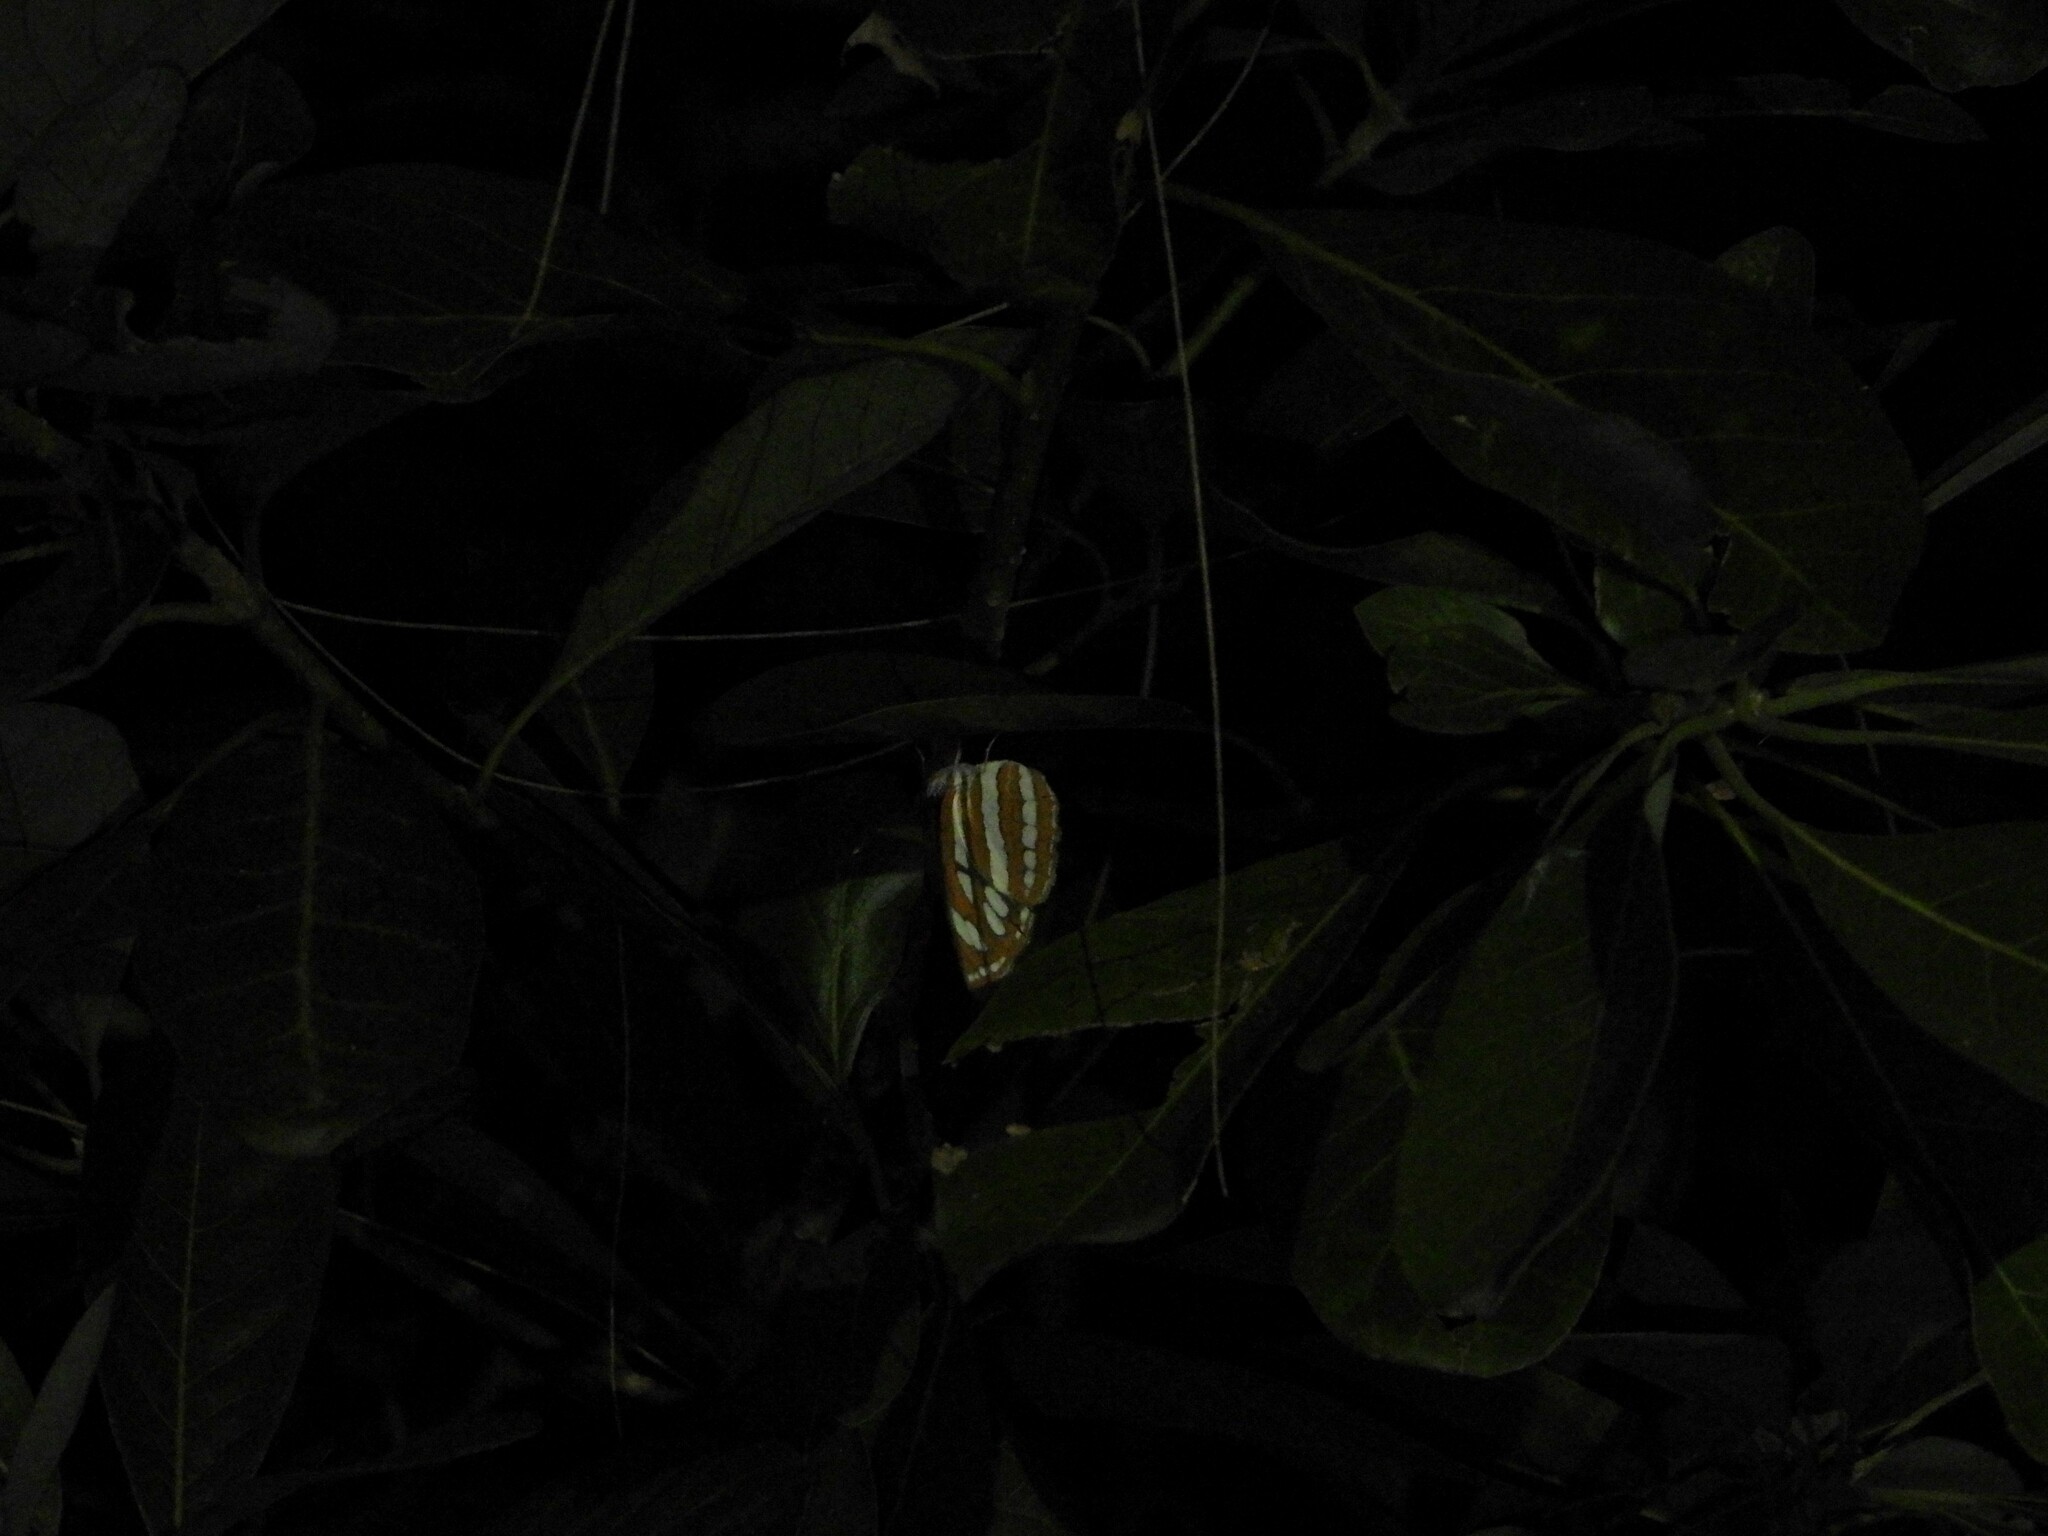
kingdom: Animalia
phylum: Arthropoda
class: Insecta
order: Lepidoptera
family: Nymphalidae
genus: Neptis
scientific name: Neptis hylas
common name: Common sailer
